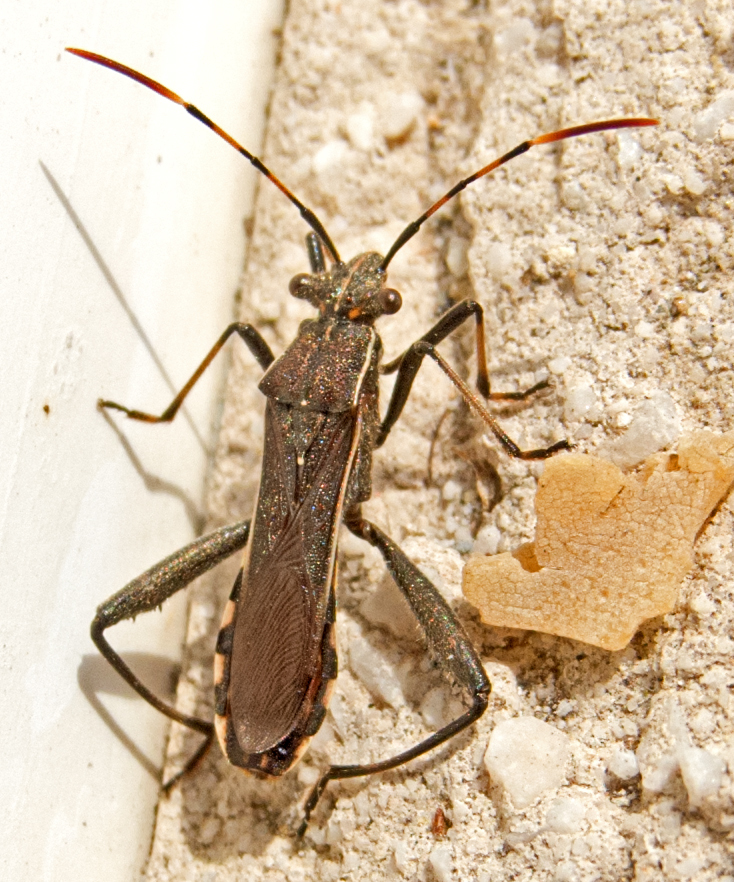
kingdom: Animalia
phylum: Arthropoda
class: Insecta
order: Hemiptera
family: Alydidae
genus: Camptopus
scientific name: Camptopus lateralis
